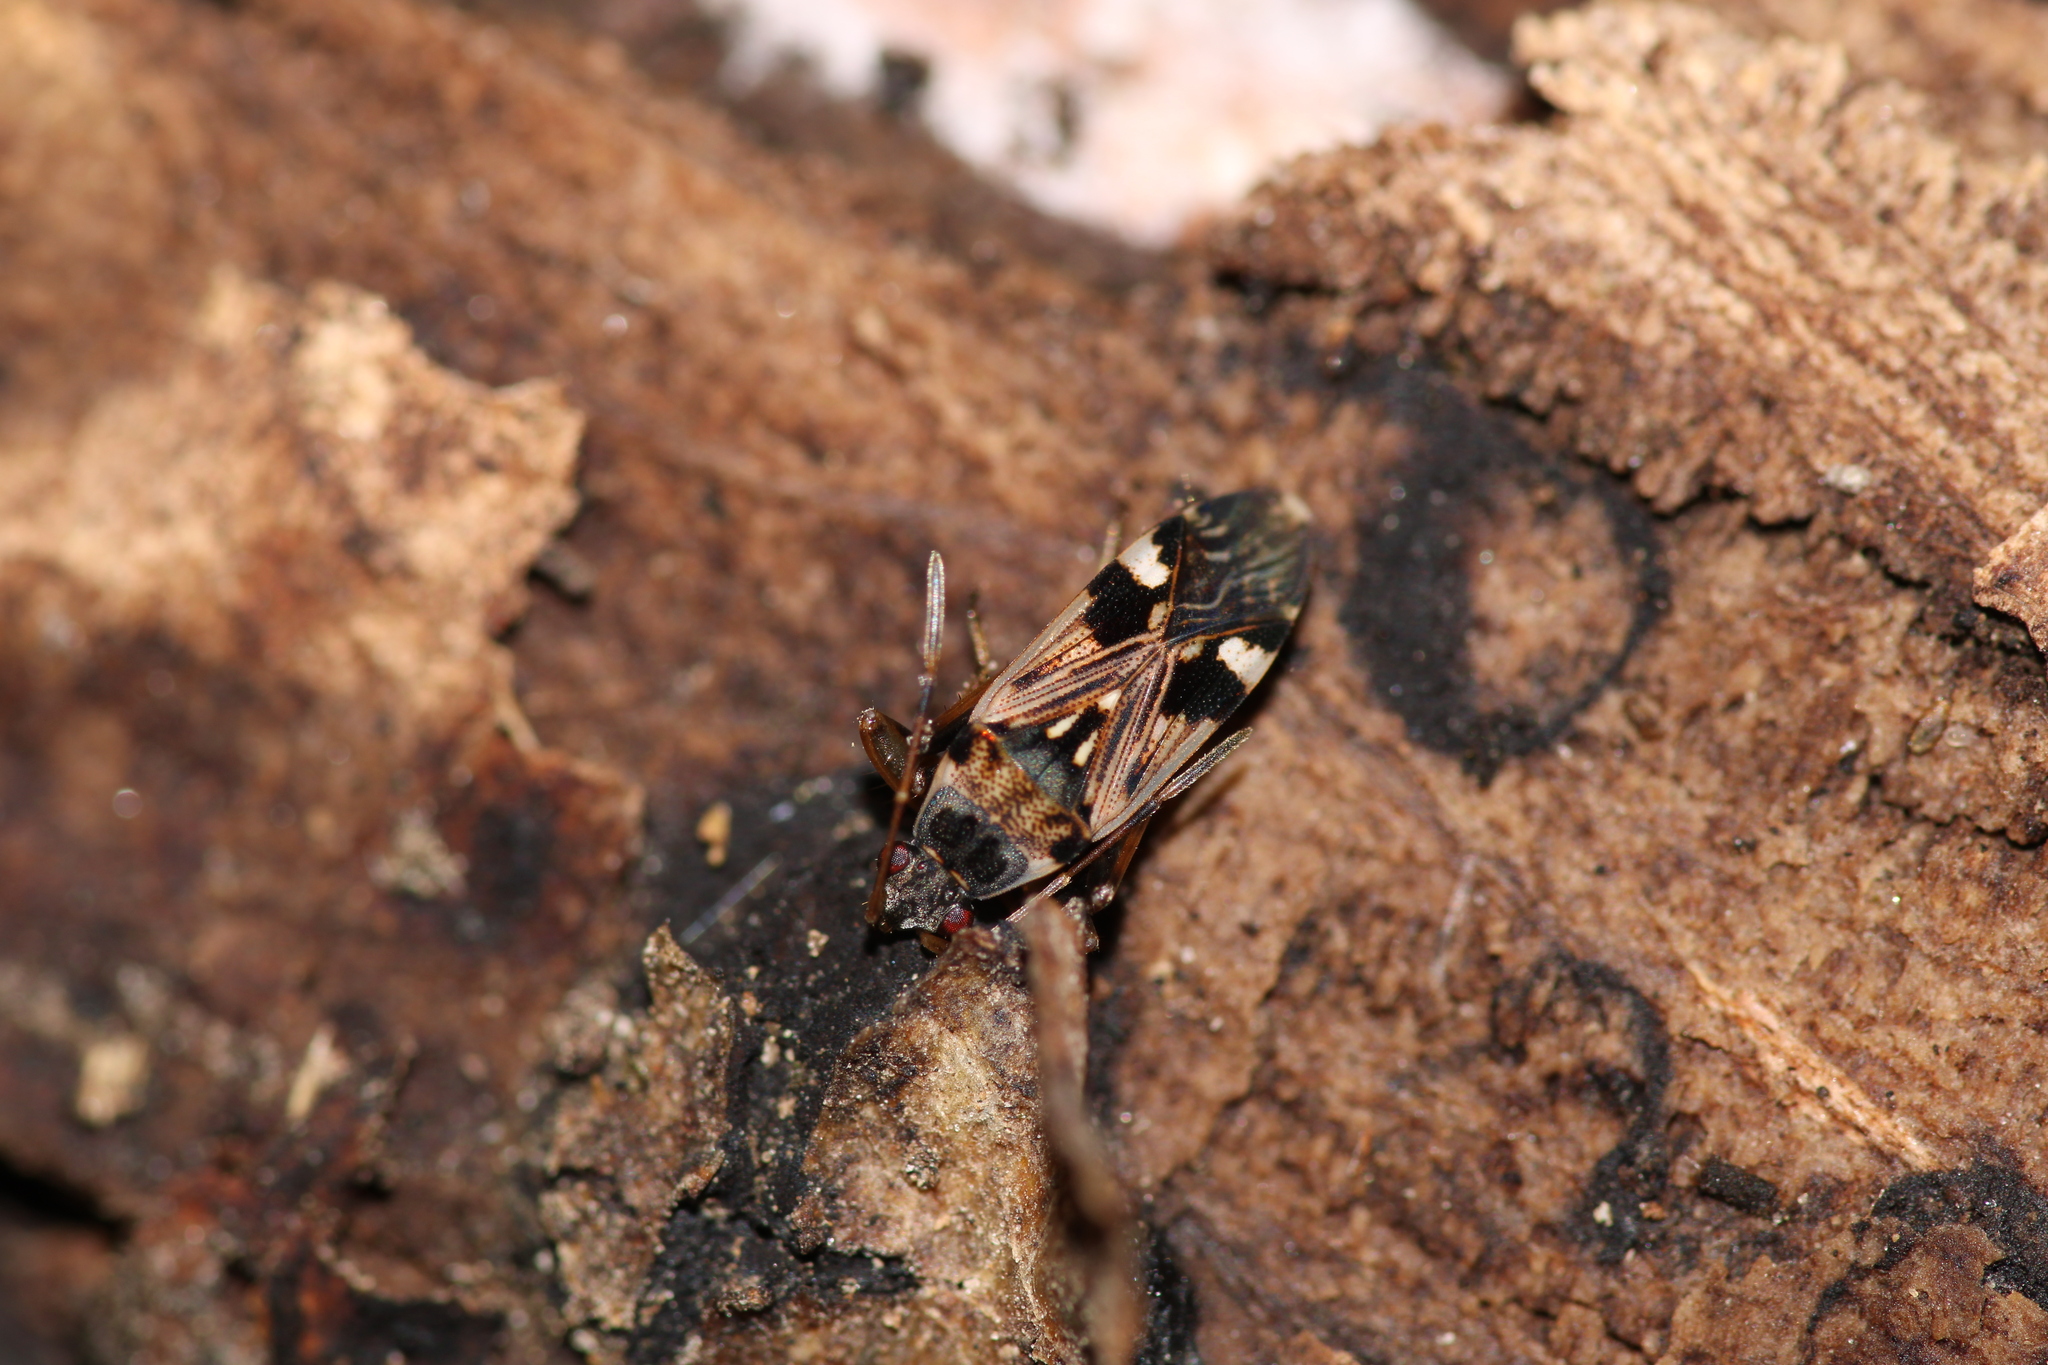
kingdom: Animalia
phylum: Arthropoda
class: Insecta
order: Hemiptera
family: Rhyparochromidae
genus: Beosus
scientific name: Beosus maritimus
